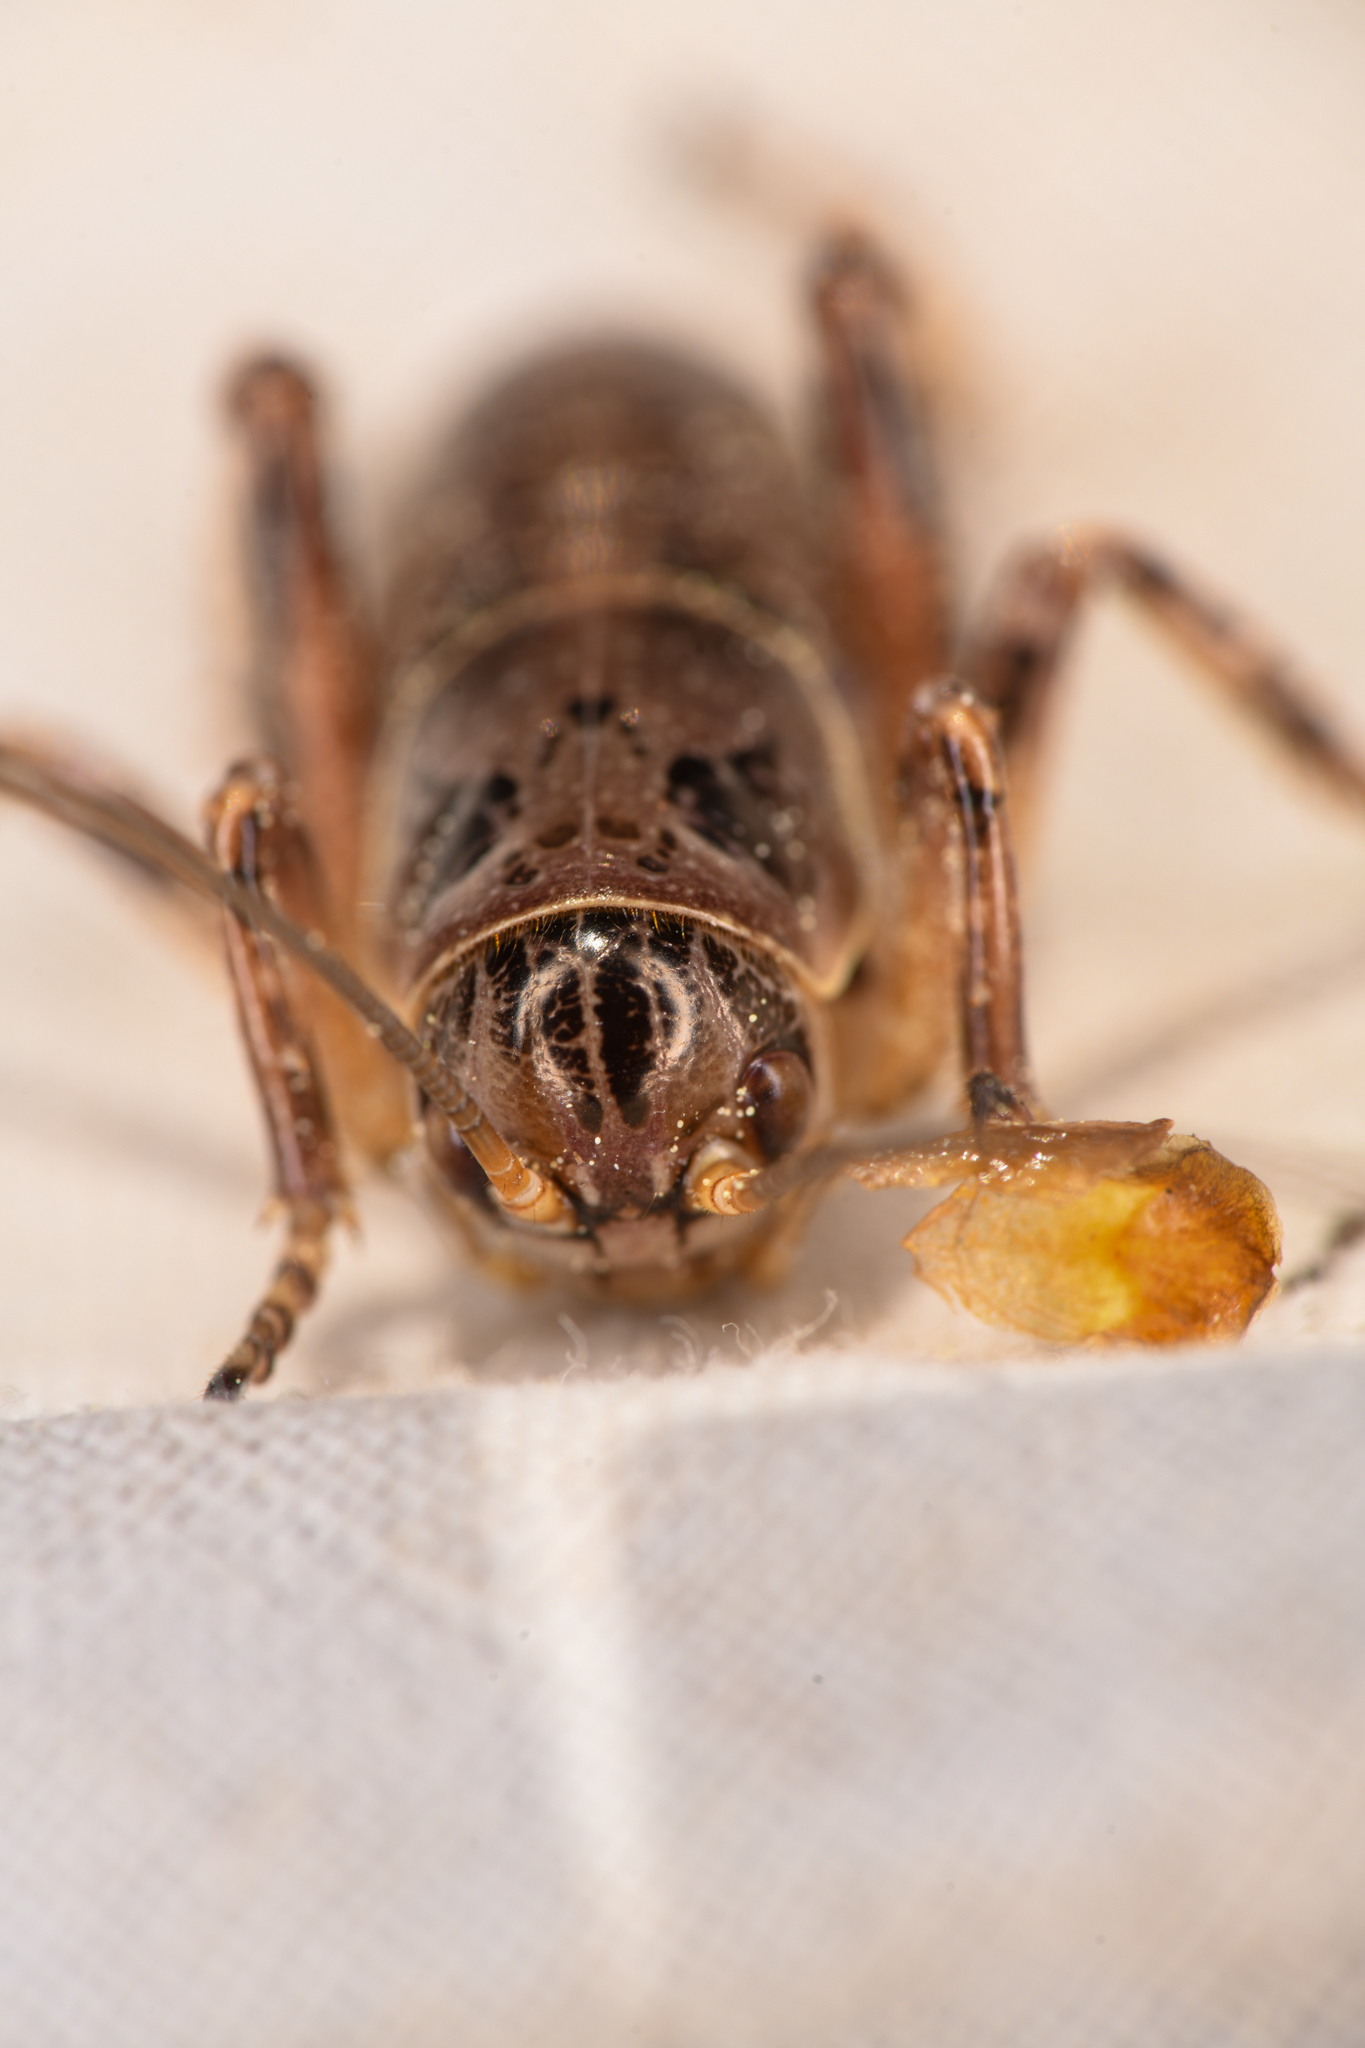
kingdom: Animalia
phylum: Arthropoda
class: Insecta
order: Orthoptera
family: Prophalangopsidae
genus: Cyphoderris
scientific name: Cyphoderris monstrosa
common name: Great grig
